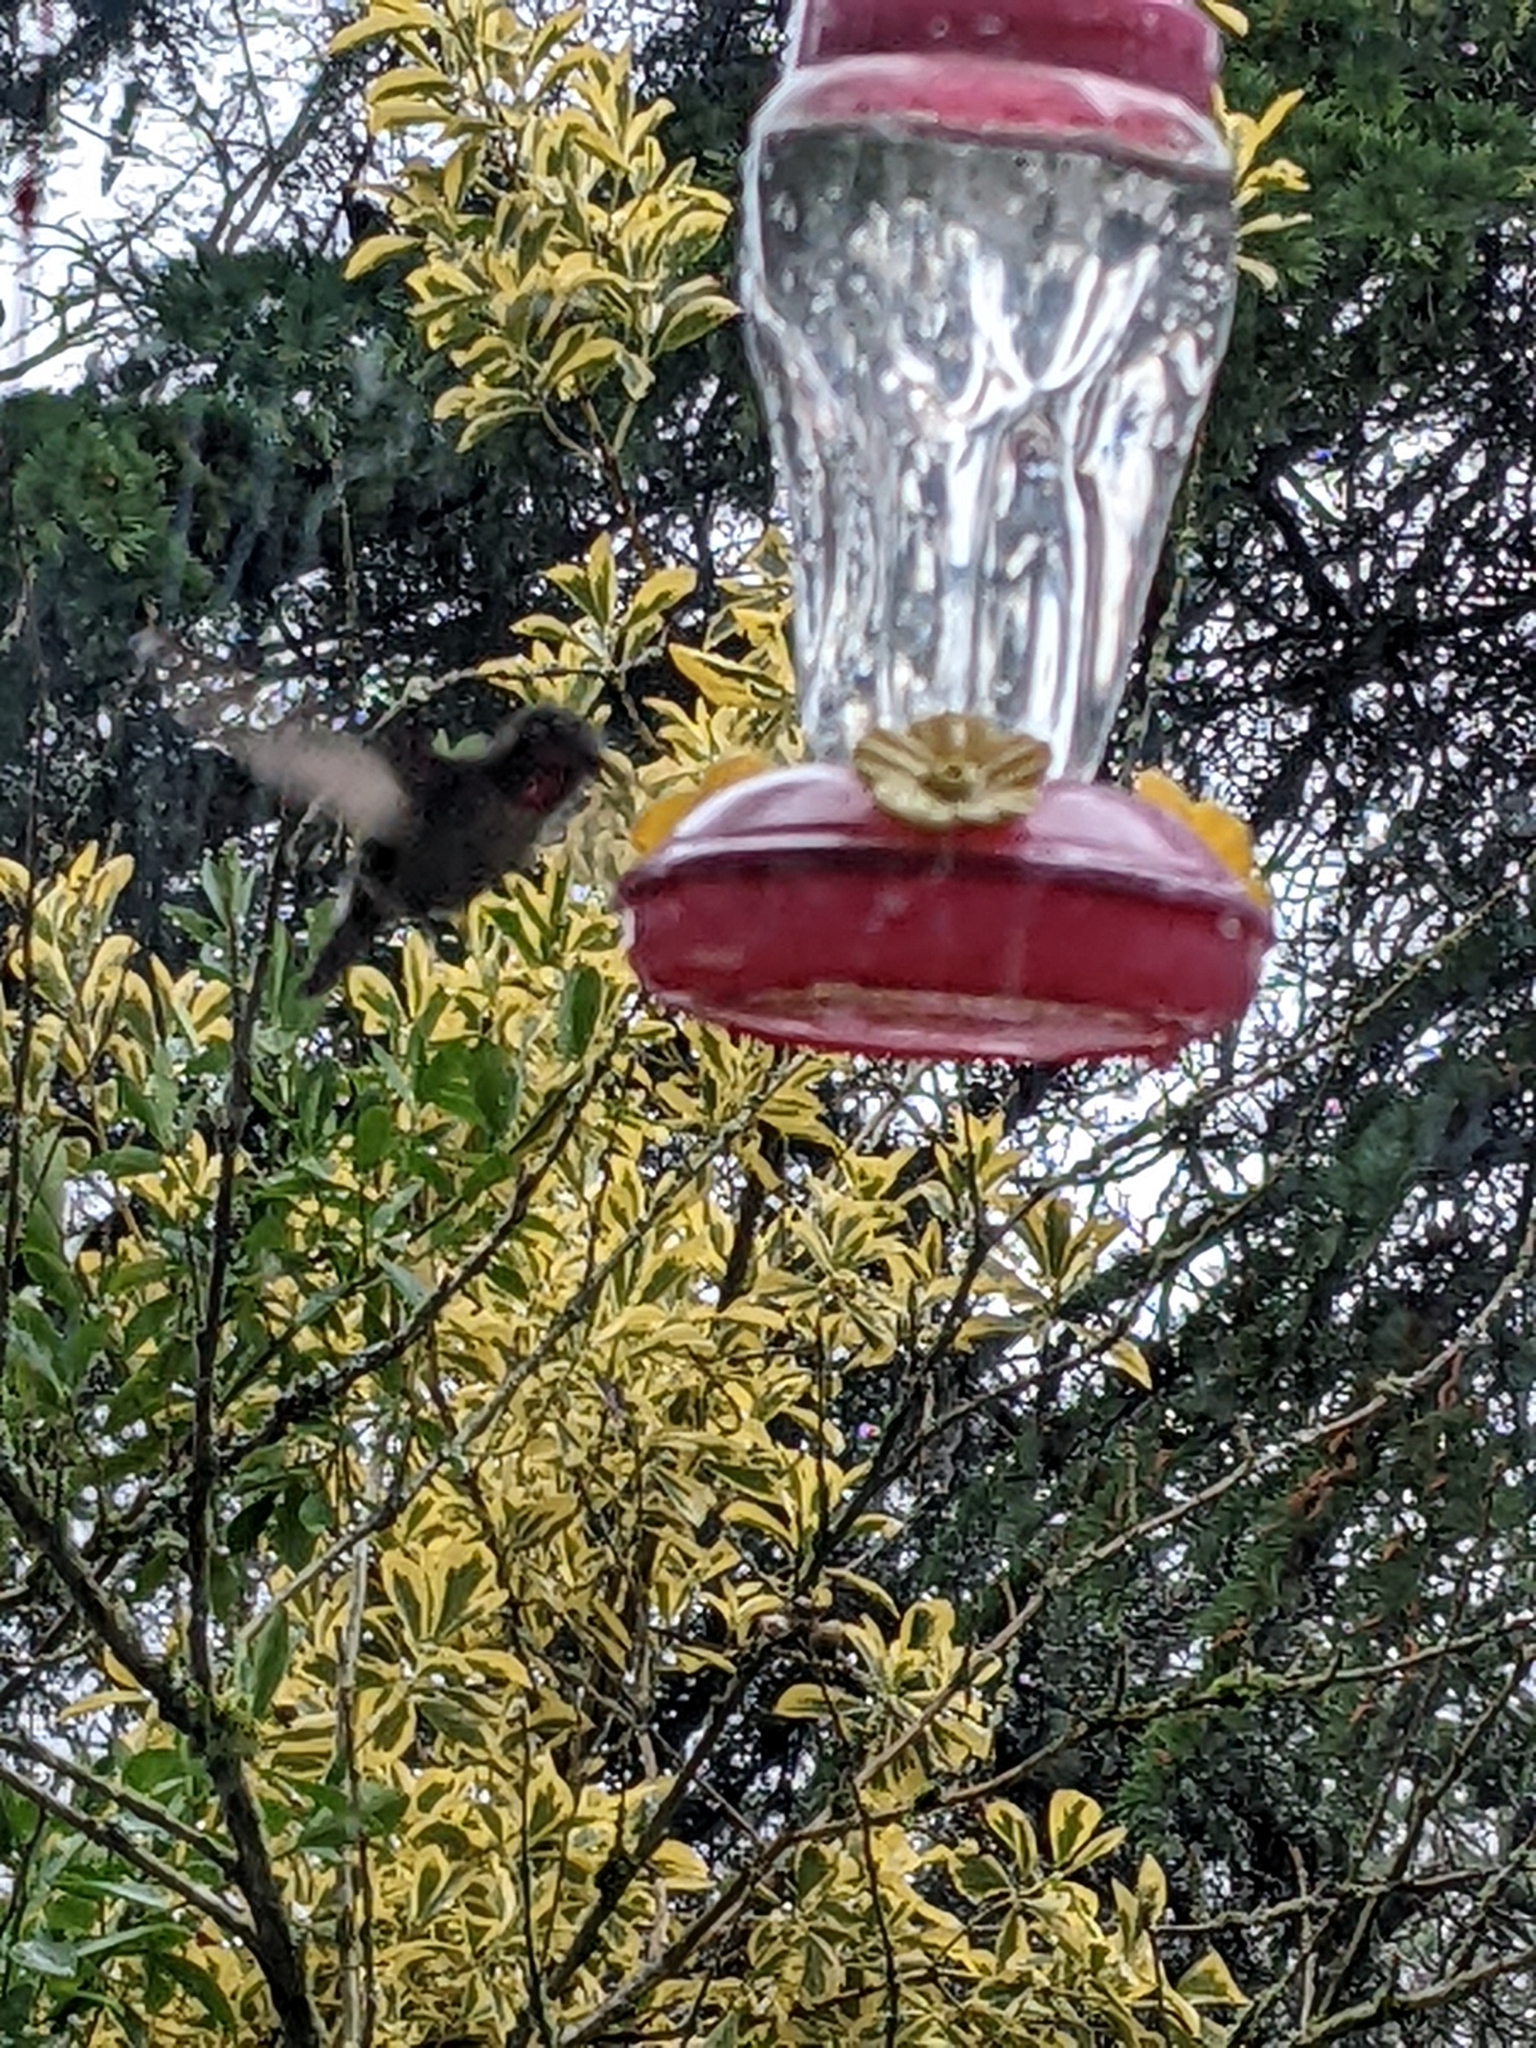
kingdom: Animalia
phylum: Chordata
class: Aves
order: Apodiformes
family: Trochilidae
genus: Calypte
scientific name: Calypte anna
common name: Anna's hummingbird
